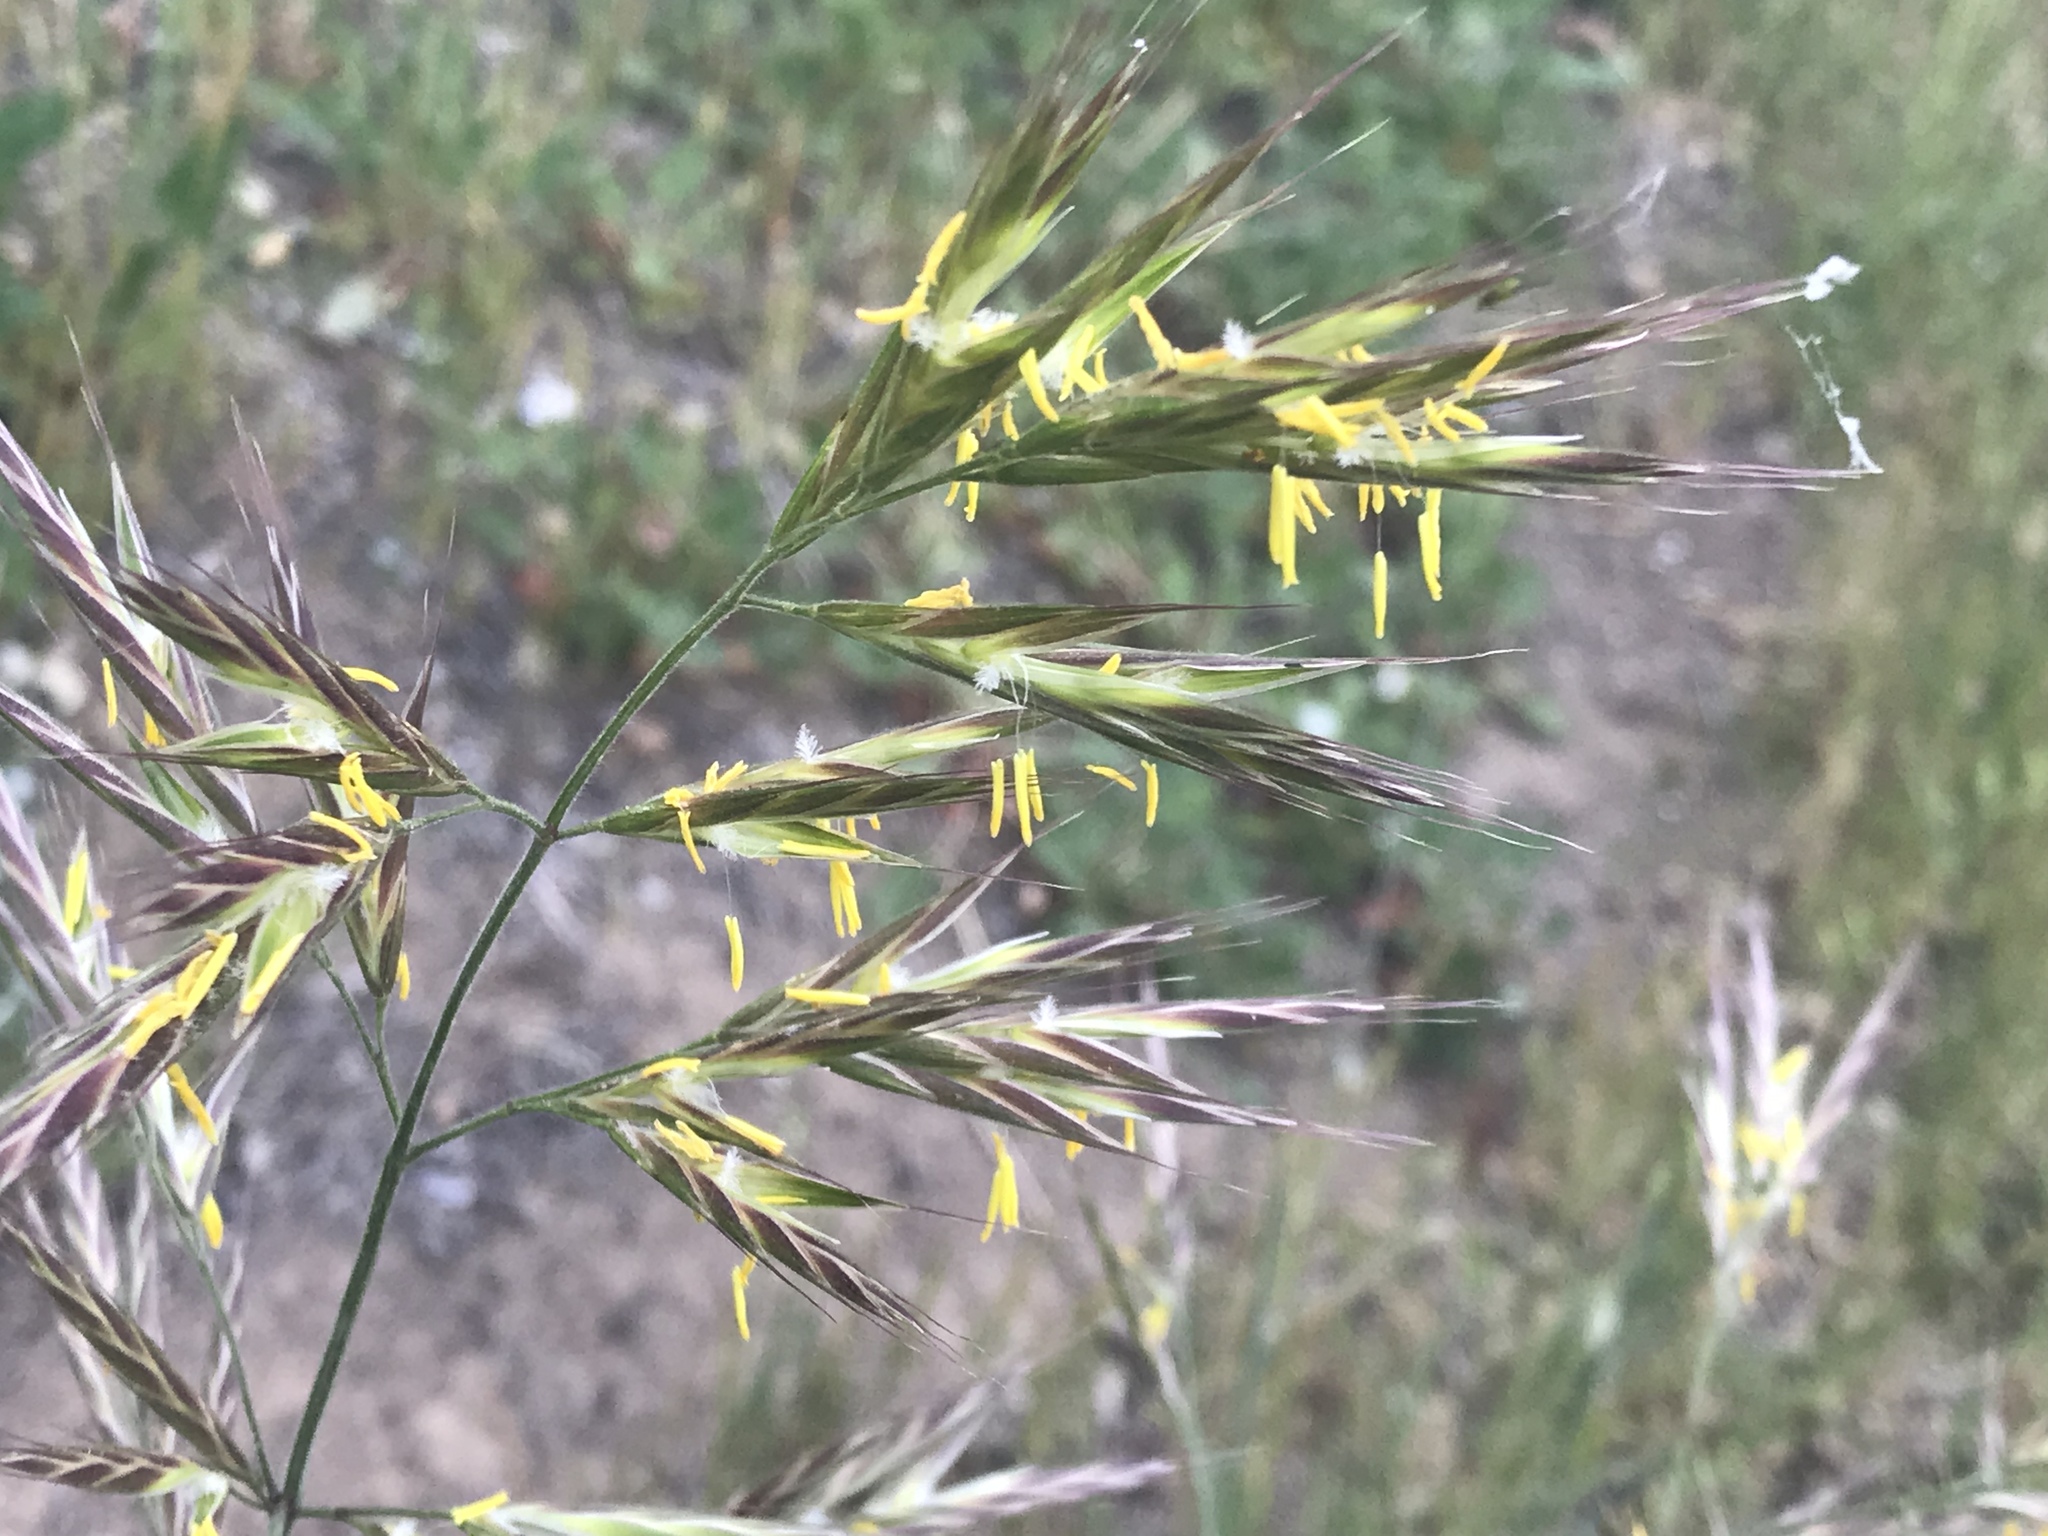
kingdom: Plantae
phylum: Tracheophyta
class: Liliopsida
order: Poales
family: Poaceae
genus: Bromus
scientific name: Bromus carinatus
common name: Mountain brome
